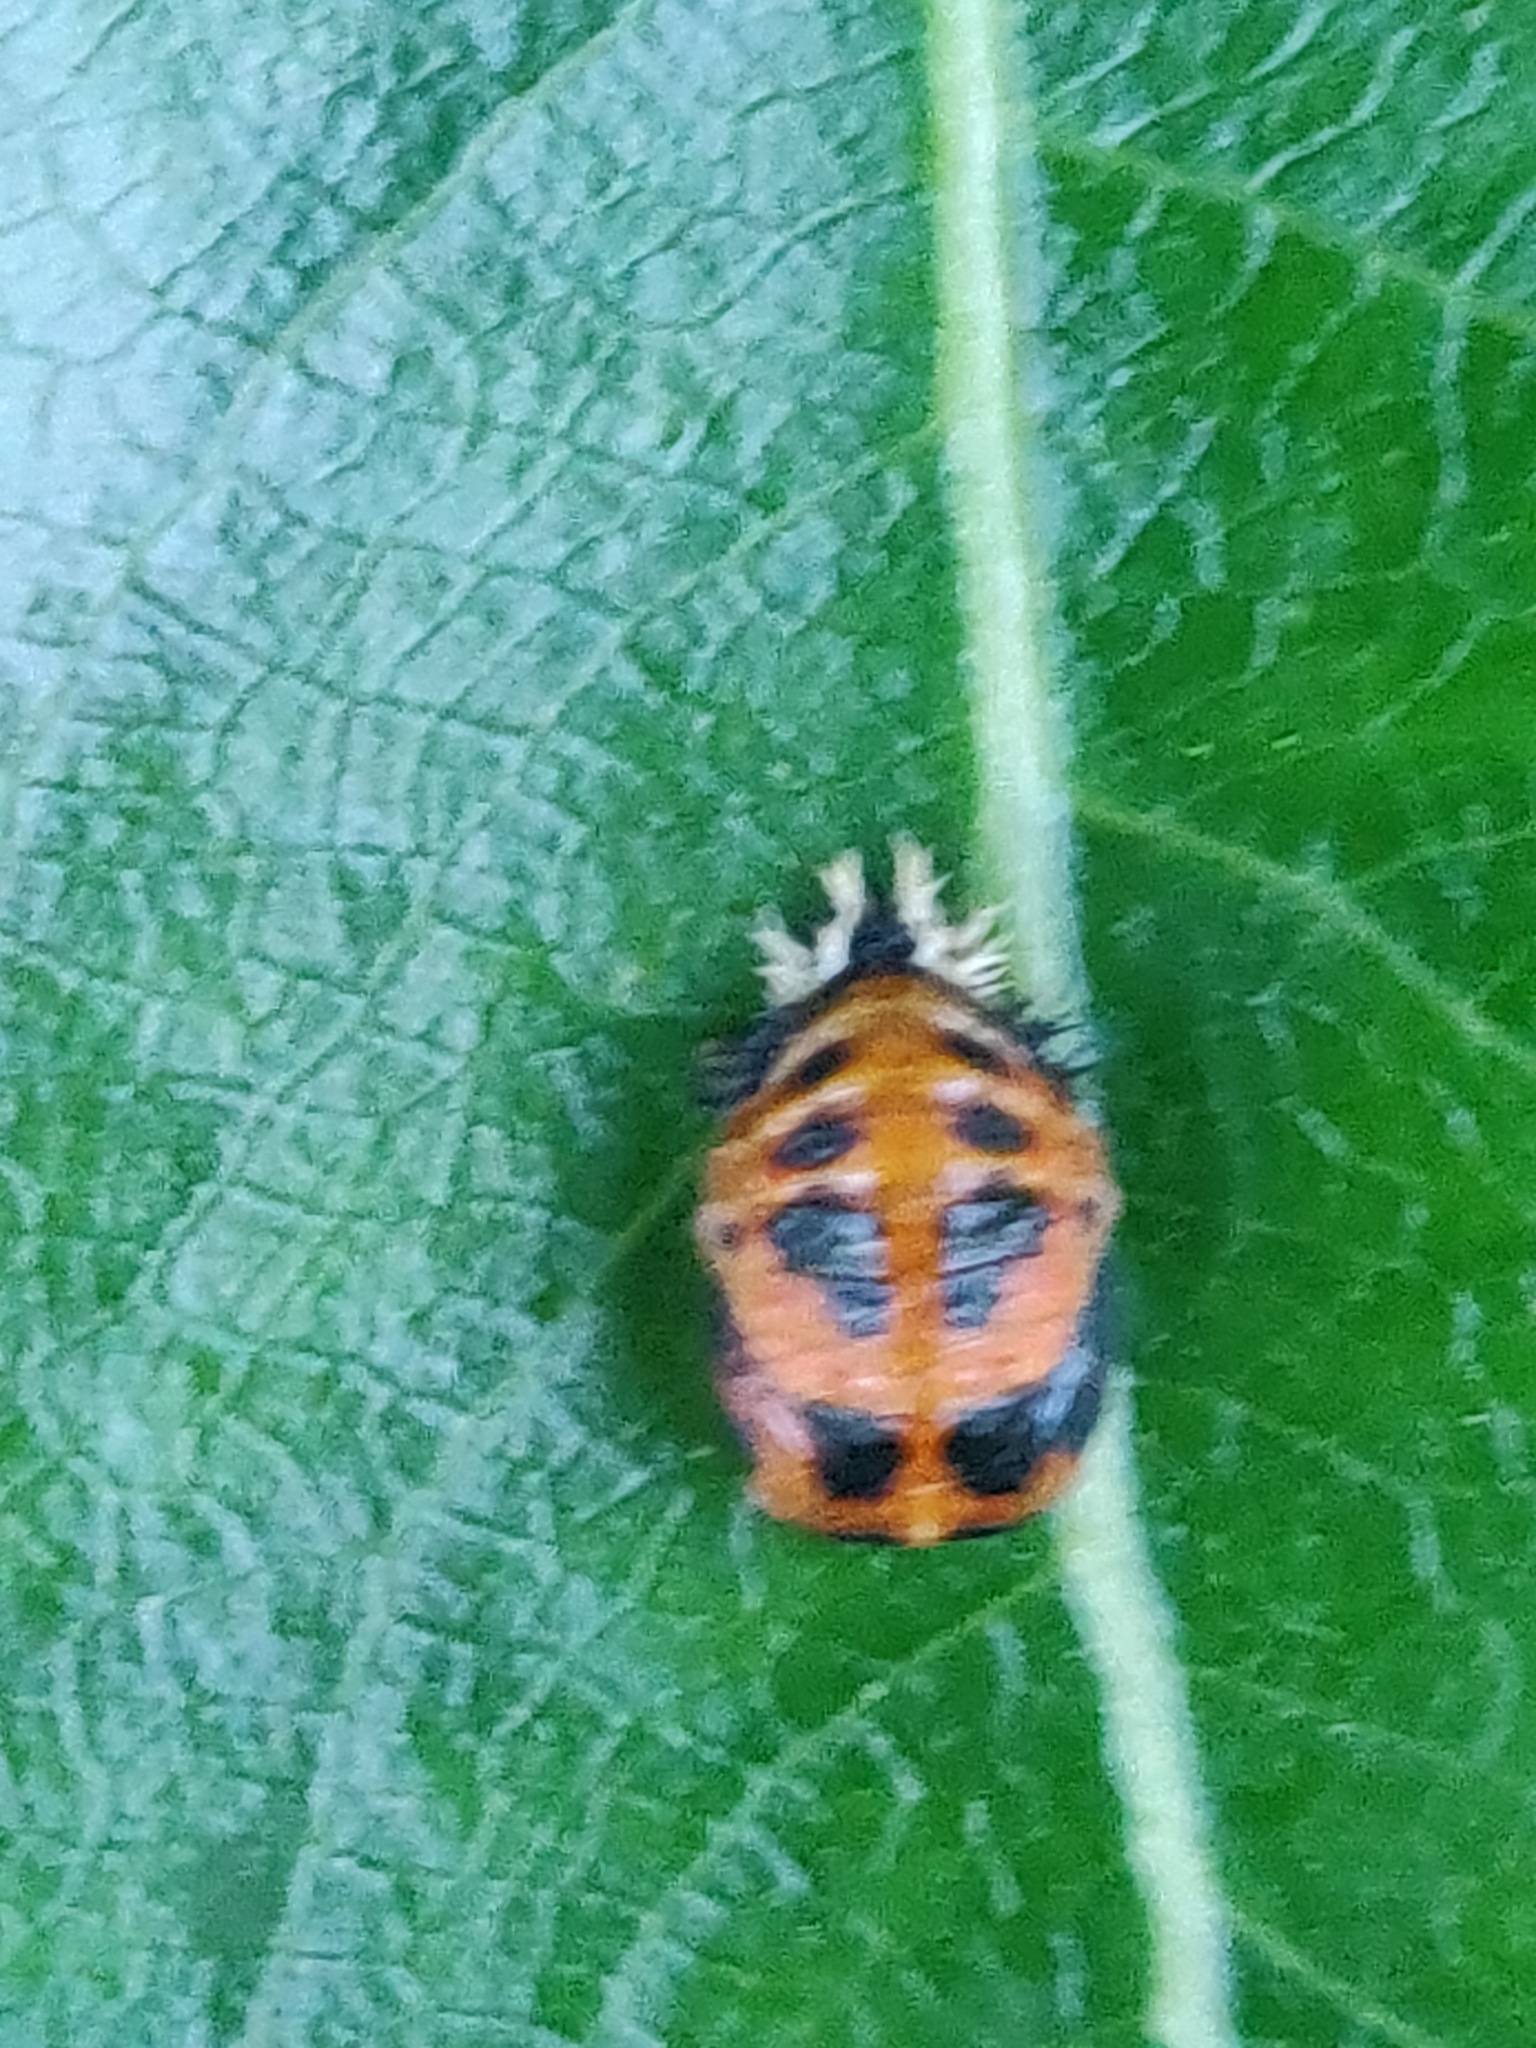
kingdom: Animalia
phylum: Arthropoda
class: Insecta
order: Coleoptera
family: Coccinellidae
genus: Harmonia
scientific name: Harmonia axyridis
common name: Harlequin ladybird
